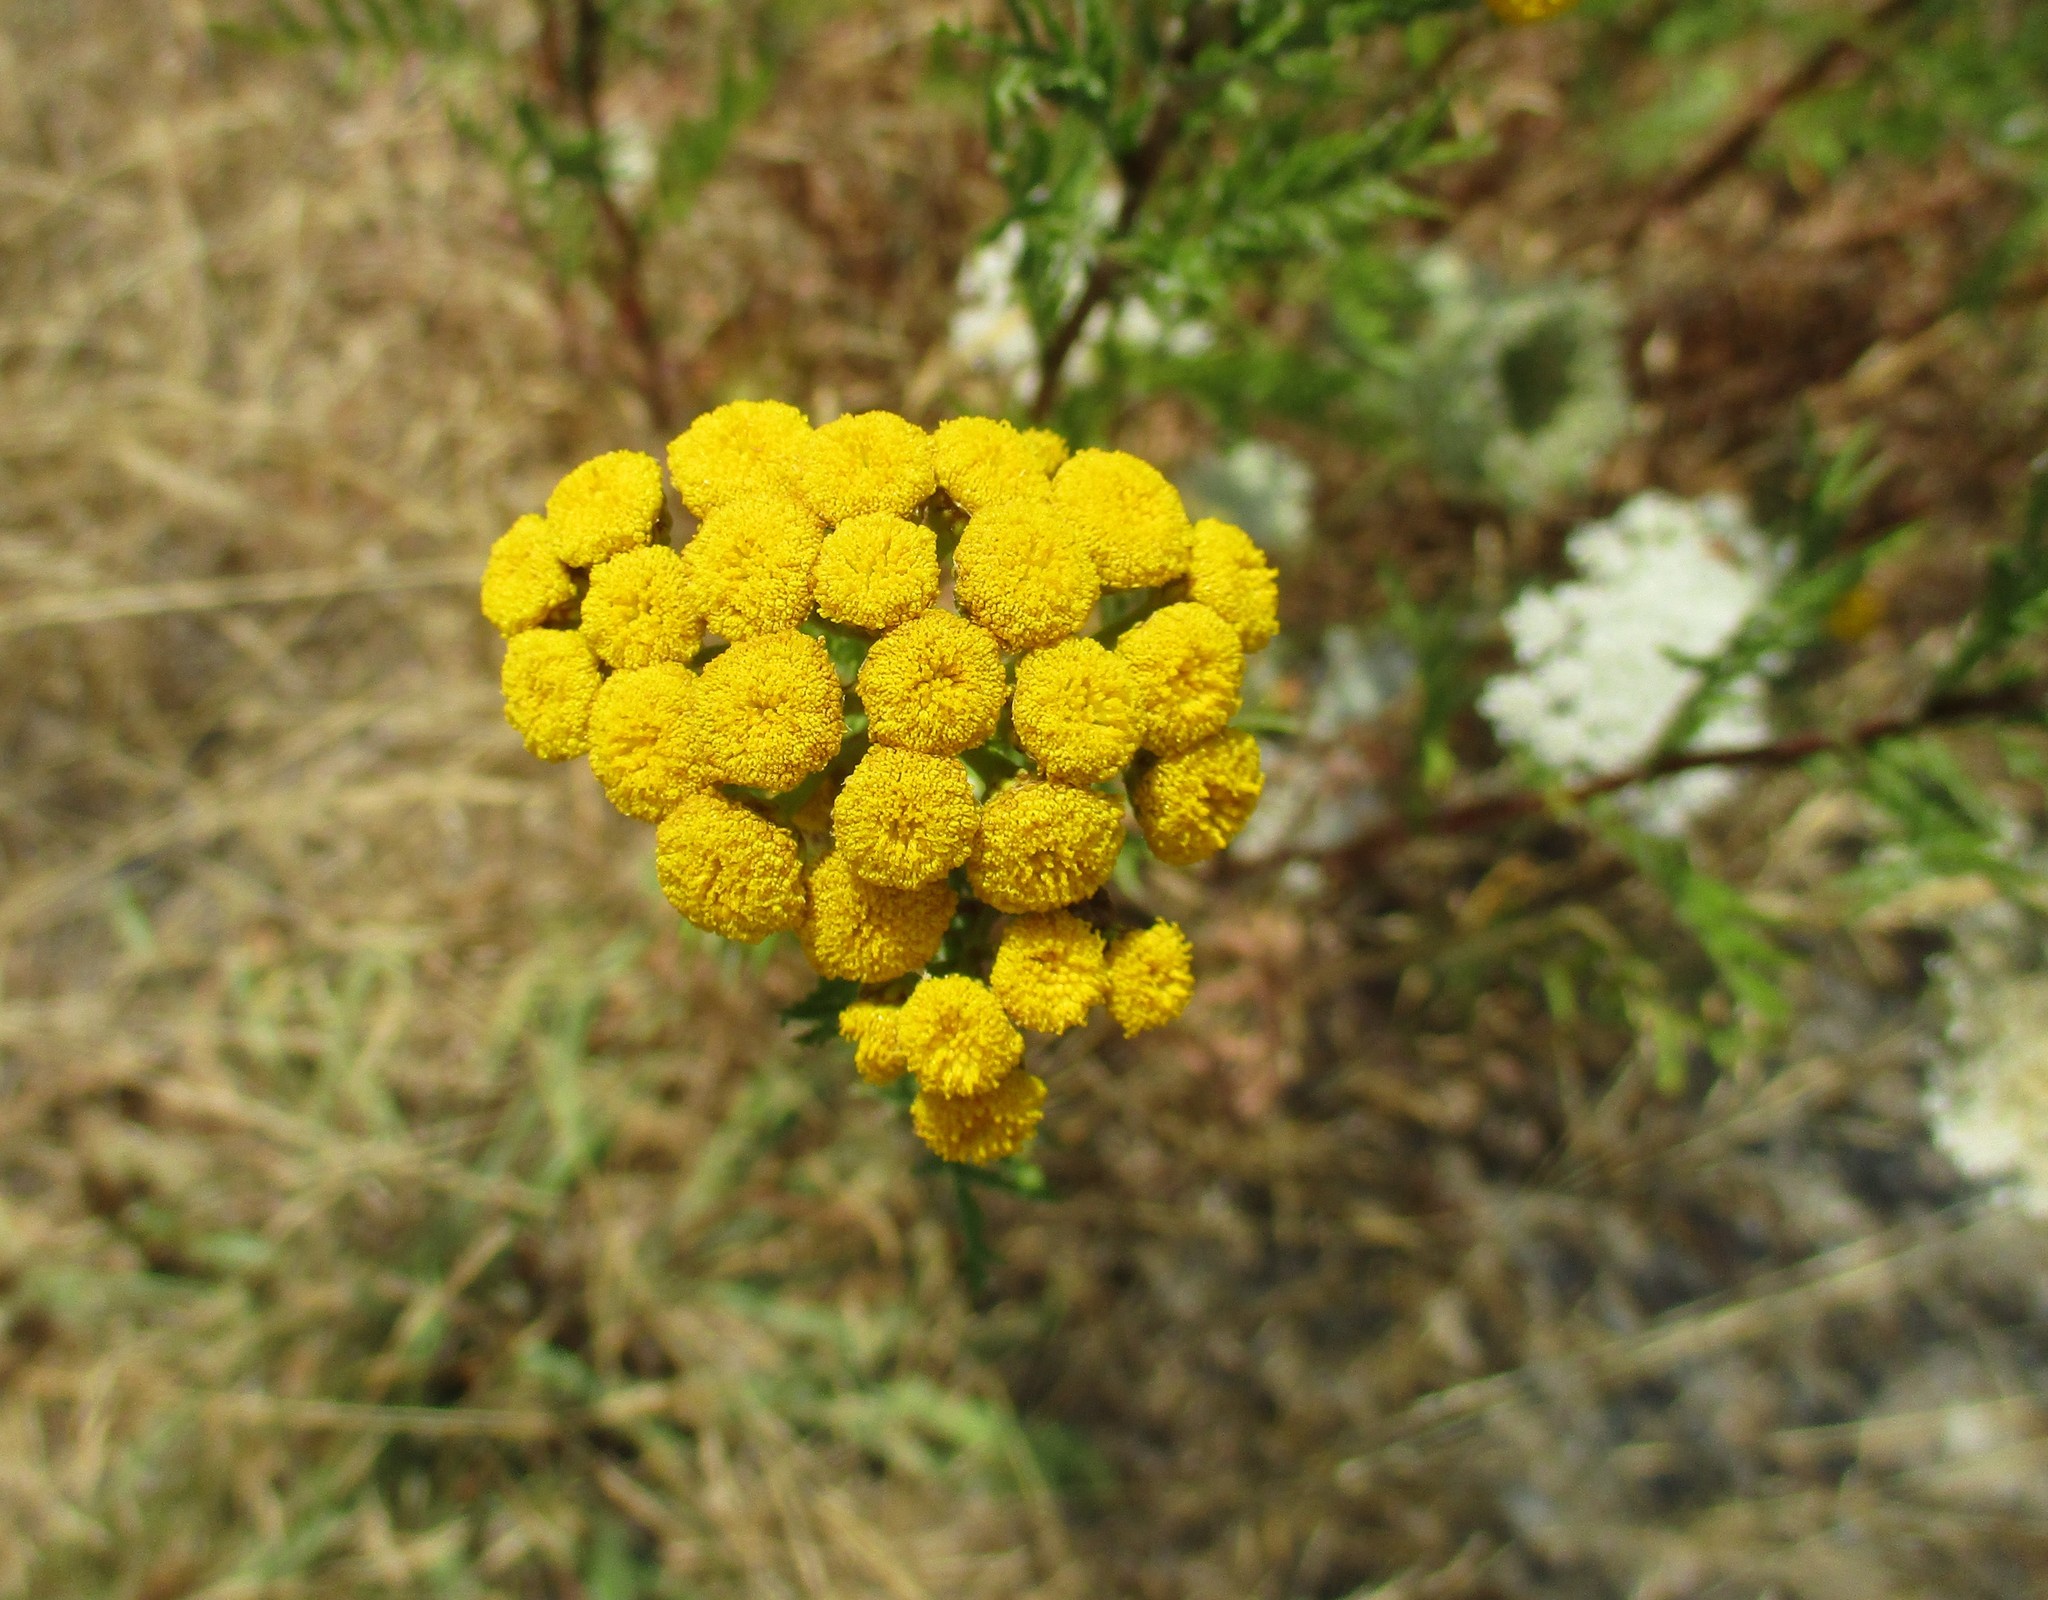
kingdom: Plantae
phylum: Tracheophyta
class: Magnoliopsida
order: Asterales
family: Asteraceae
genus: Tanacetum
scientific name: Tanacetum vulgare
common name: Common tansy
